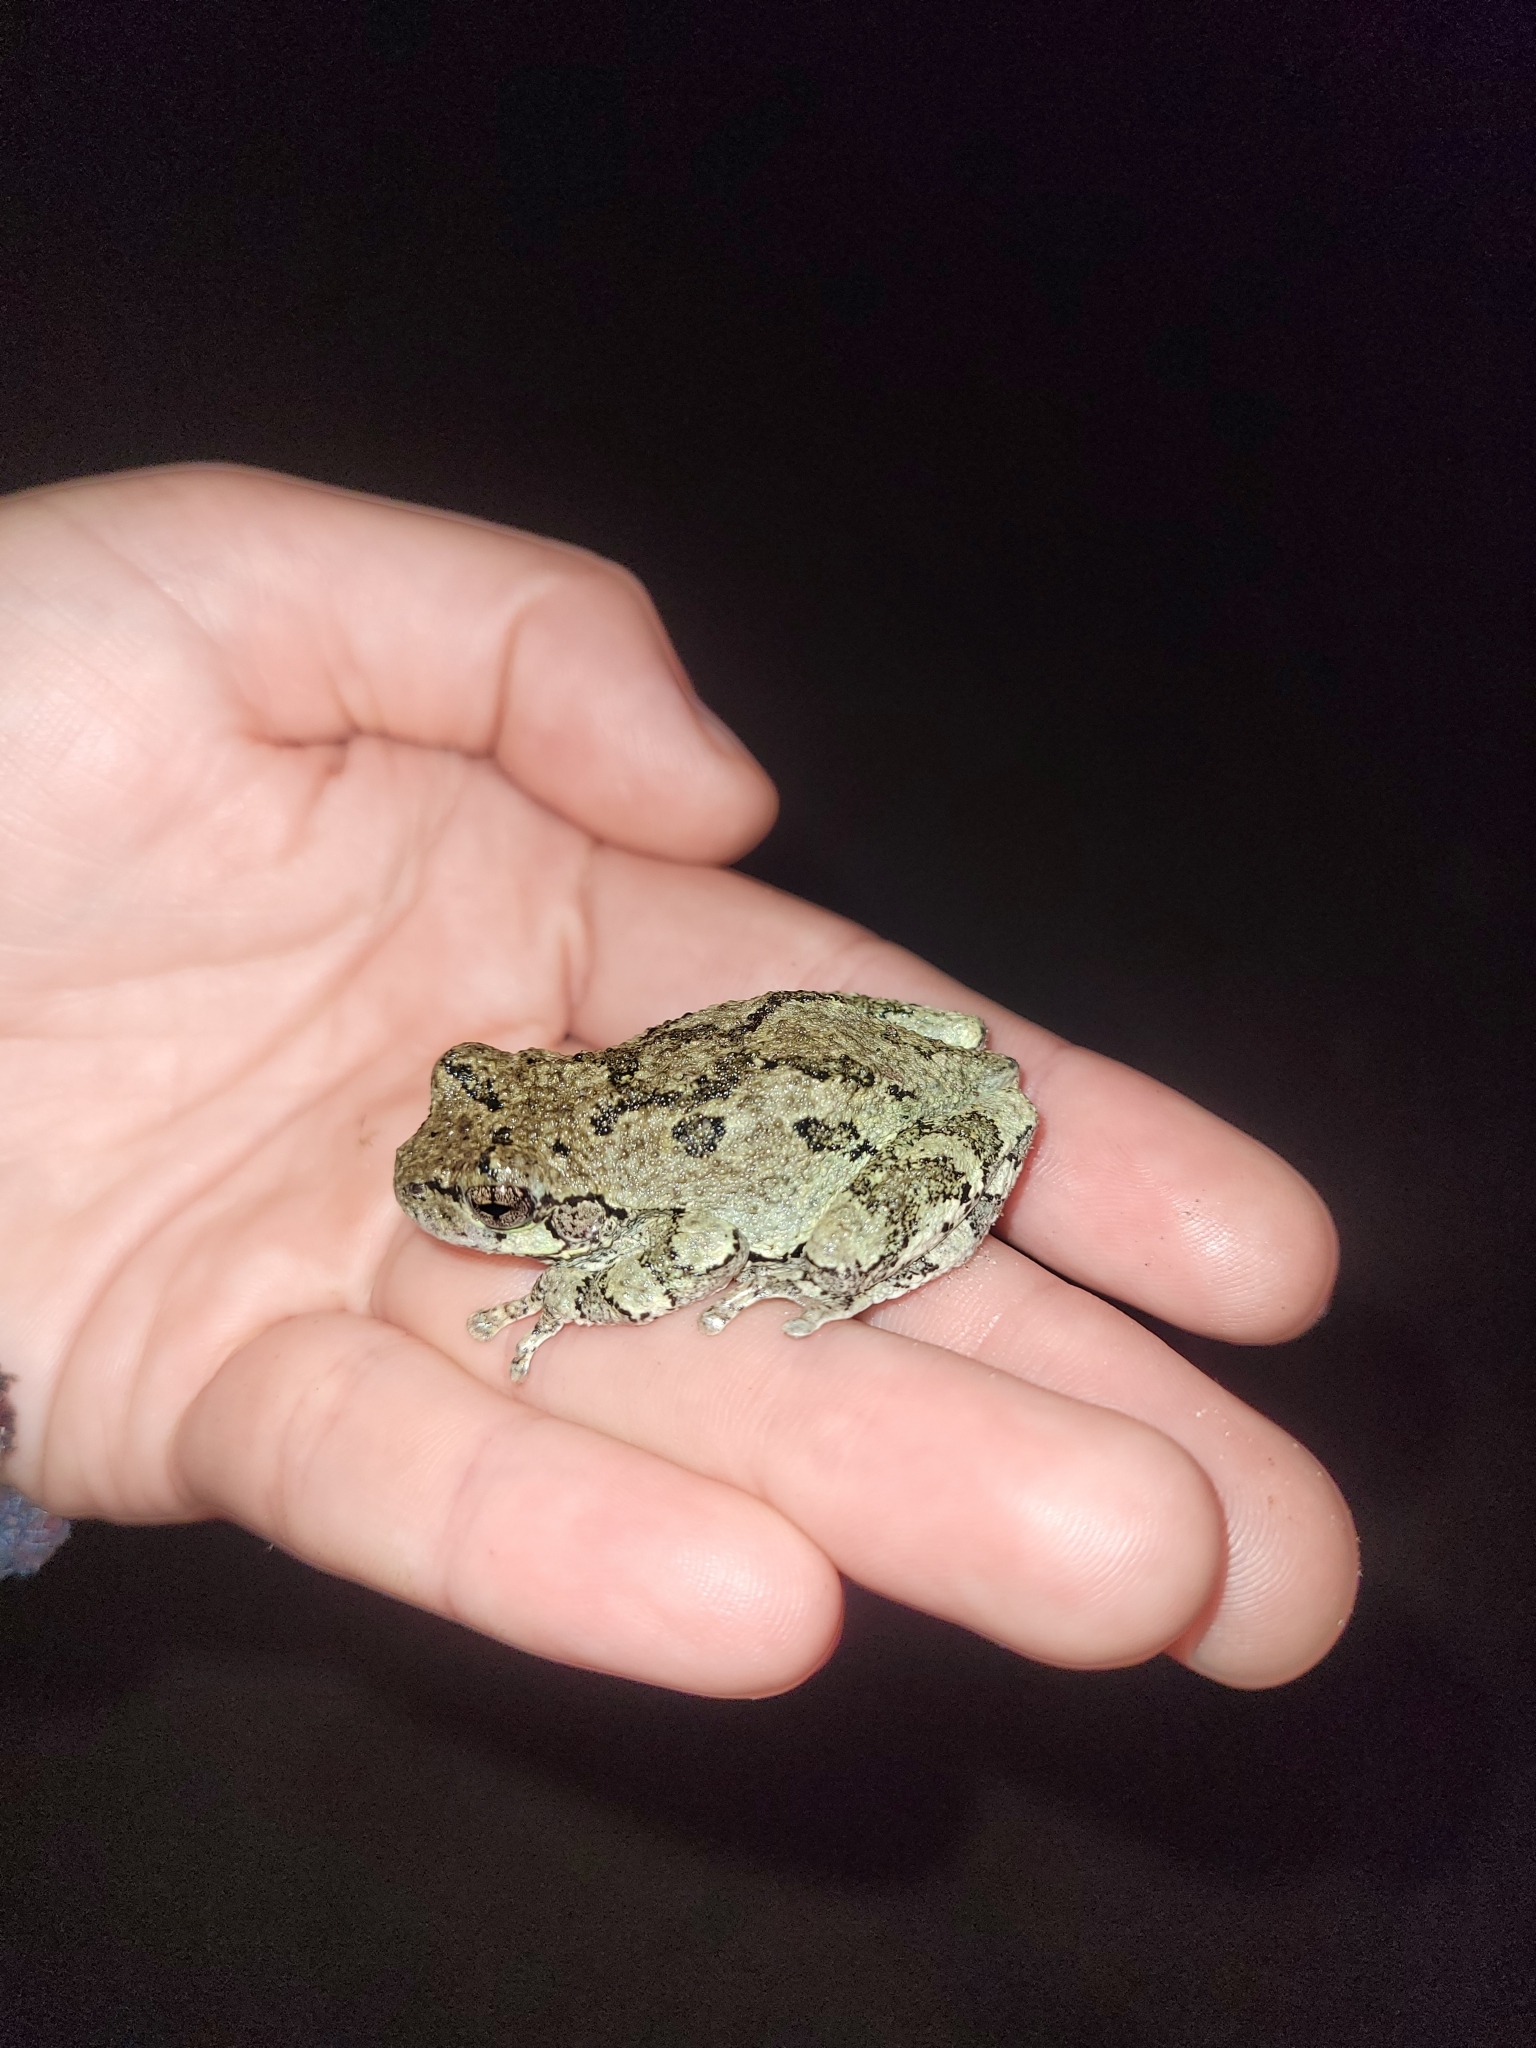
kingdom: Animalia
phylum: Chordata
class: Amphibia
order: Anura
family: Hylidae
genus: Dryophytes
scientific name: Dryophytes versicolor
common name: Gray treefrog
